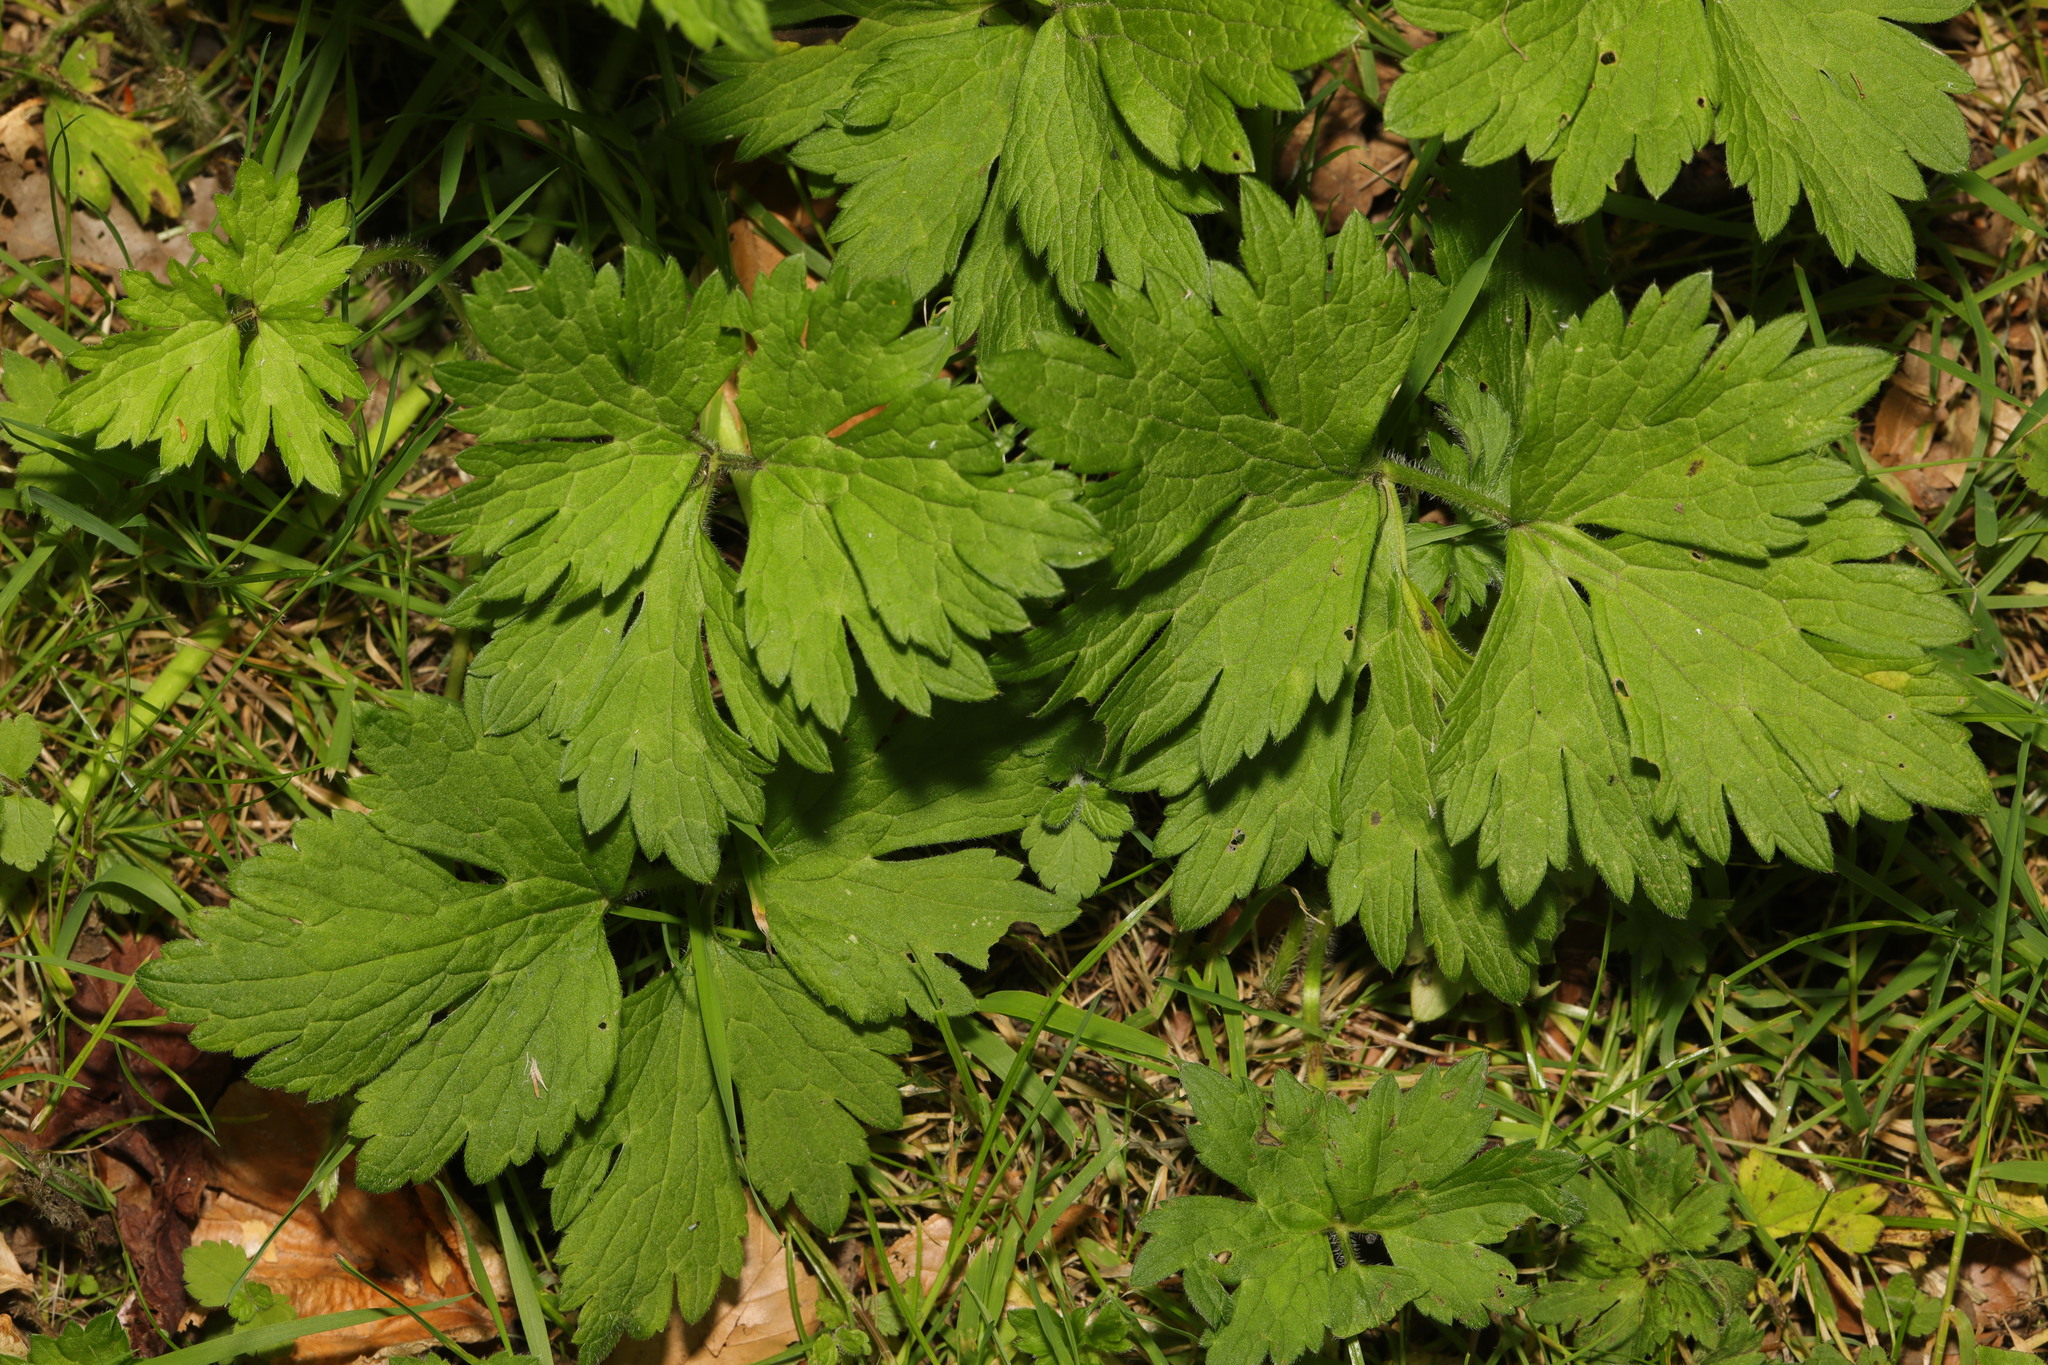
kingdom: Plantae
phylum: Tracheophyta
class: Magnoliopsida
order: Ranunculales
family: Ranunculaceae
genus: Ranunculus
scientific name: Ranunculus repens
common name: Creeping buttercup
